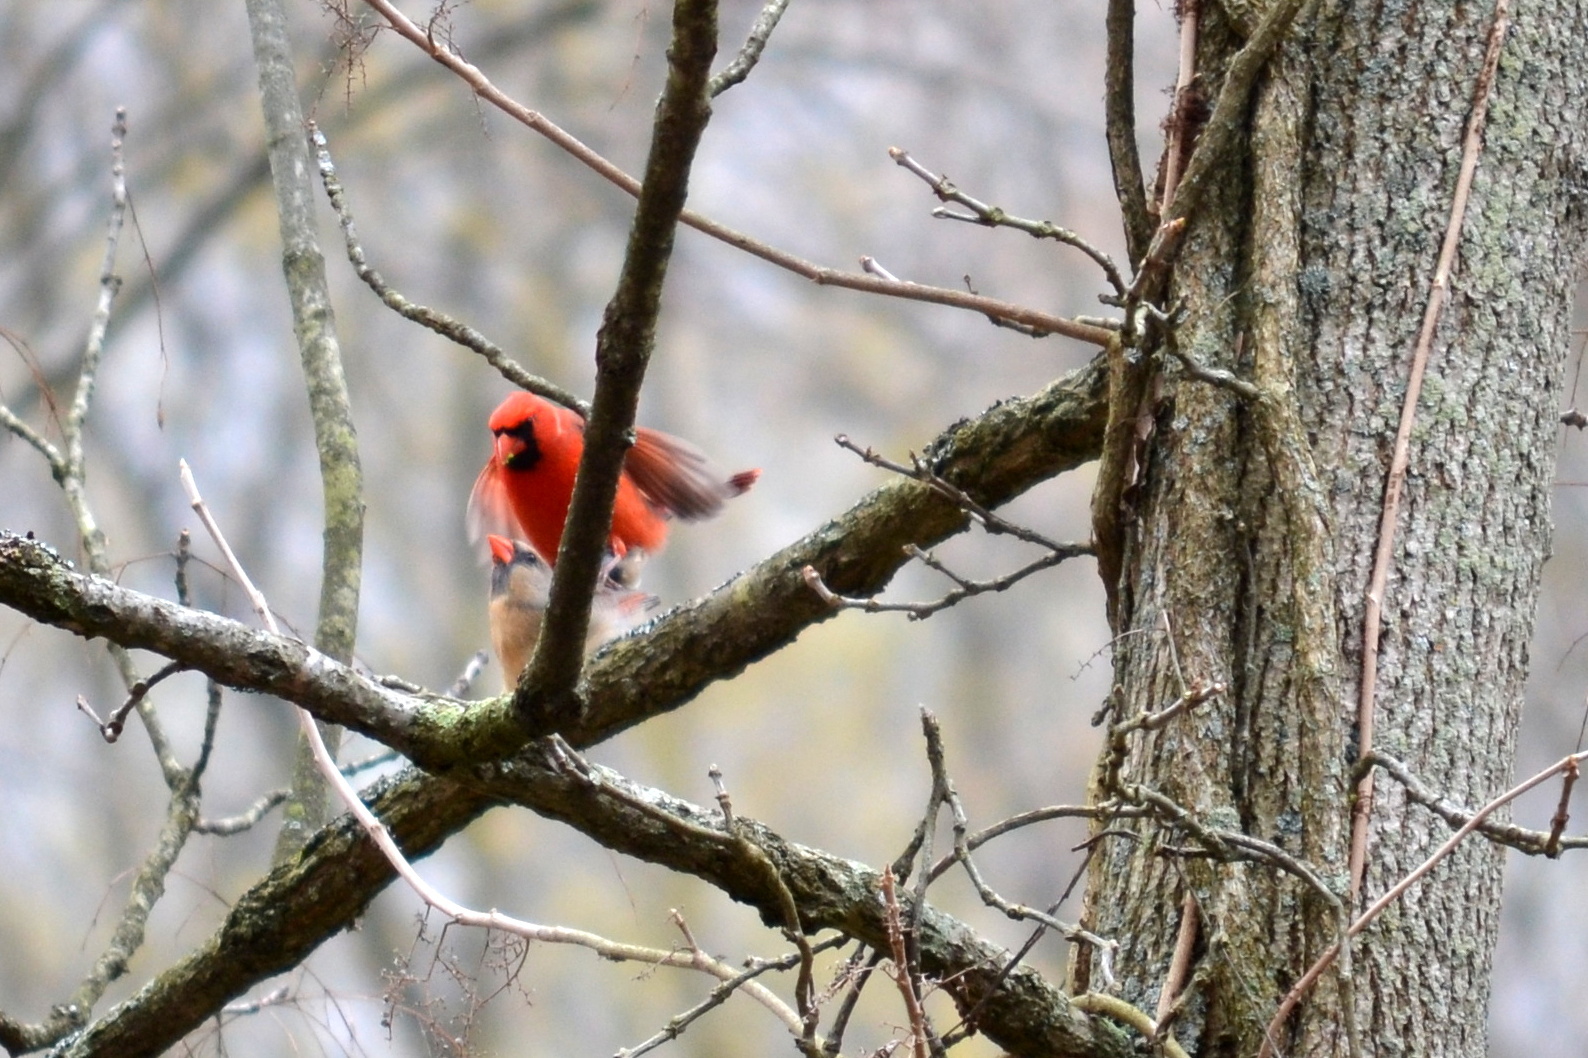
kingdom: Animalia
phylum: Chordata
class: Aves
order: Passeriformes
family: Cardinalidae
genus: Cardinalis
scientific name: Cardinalis cardinalis
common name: Northern cardinal
